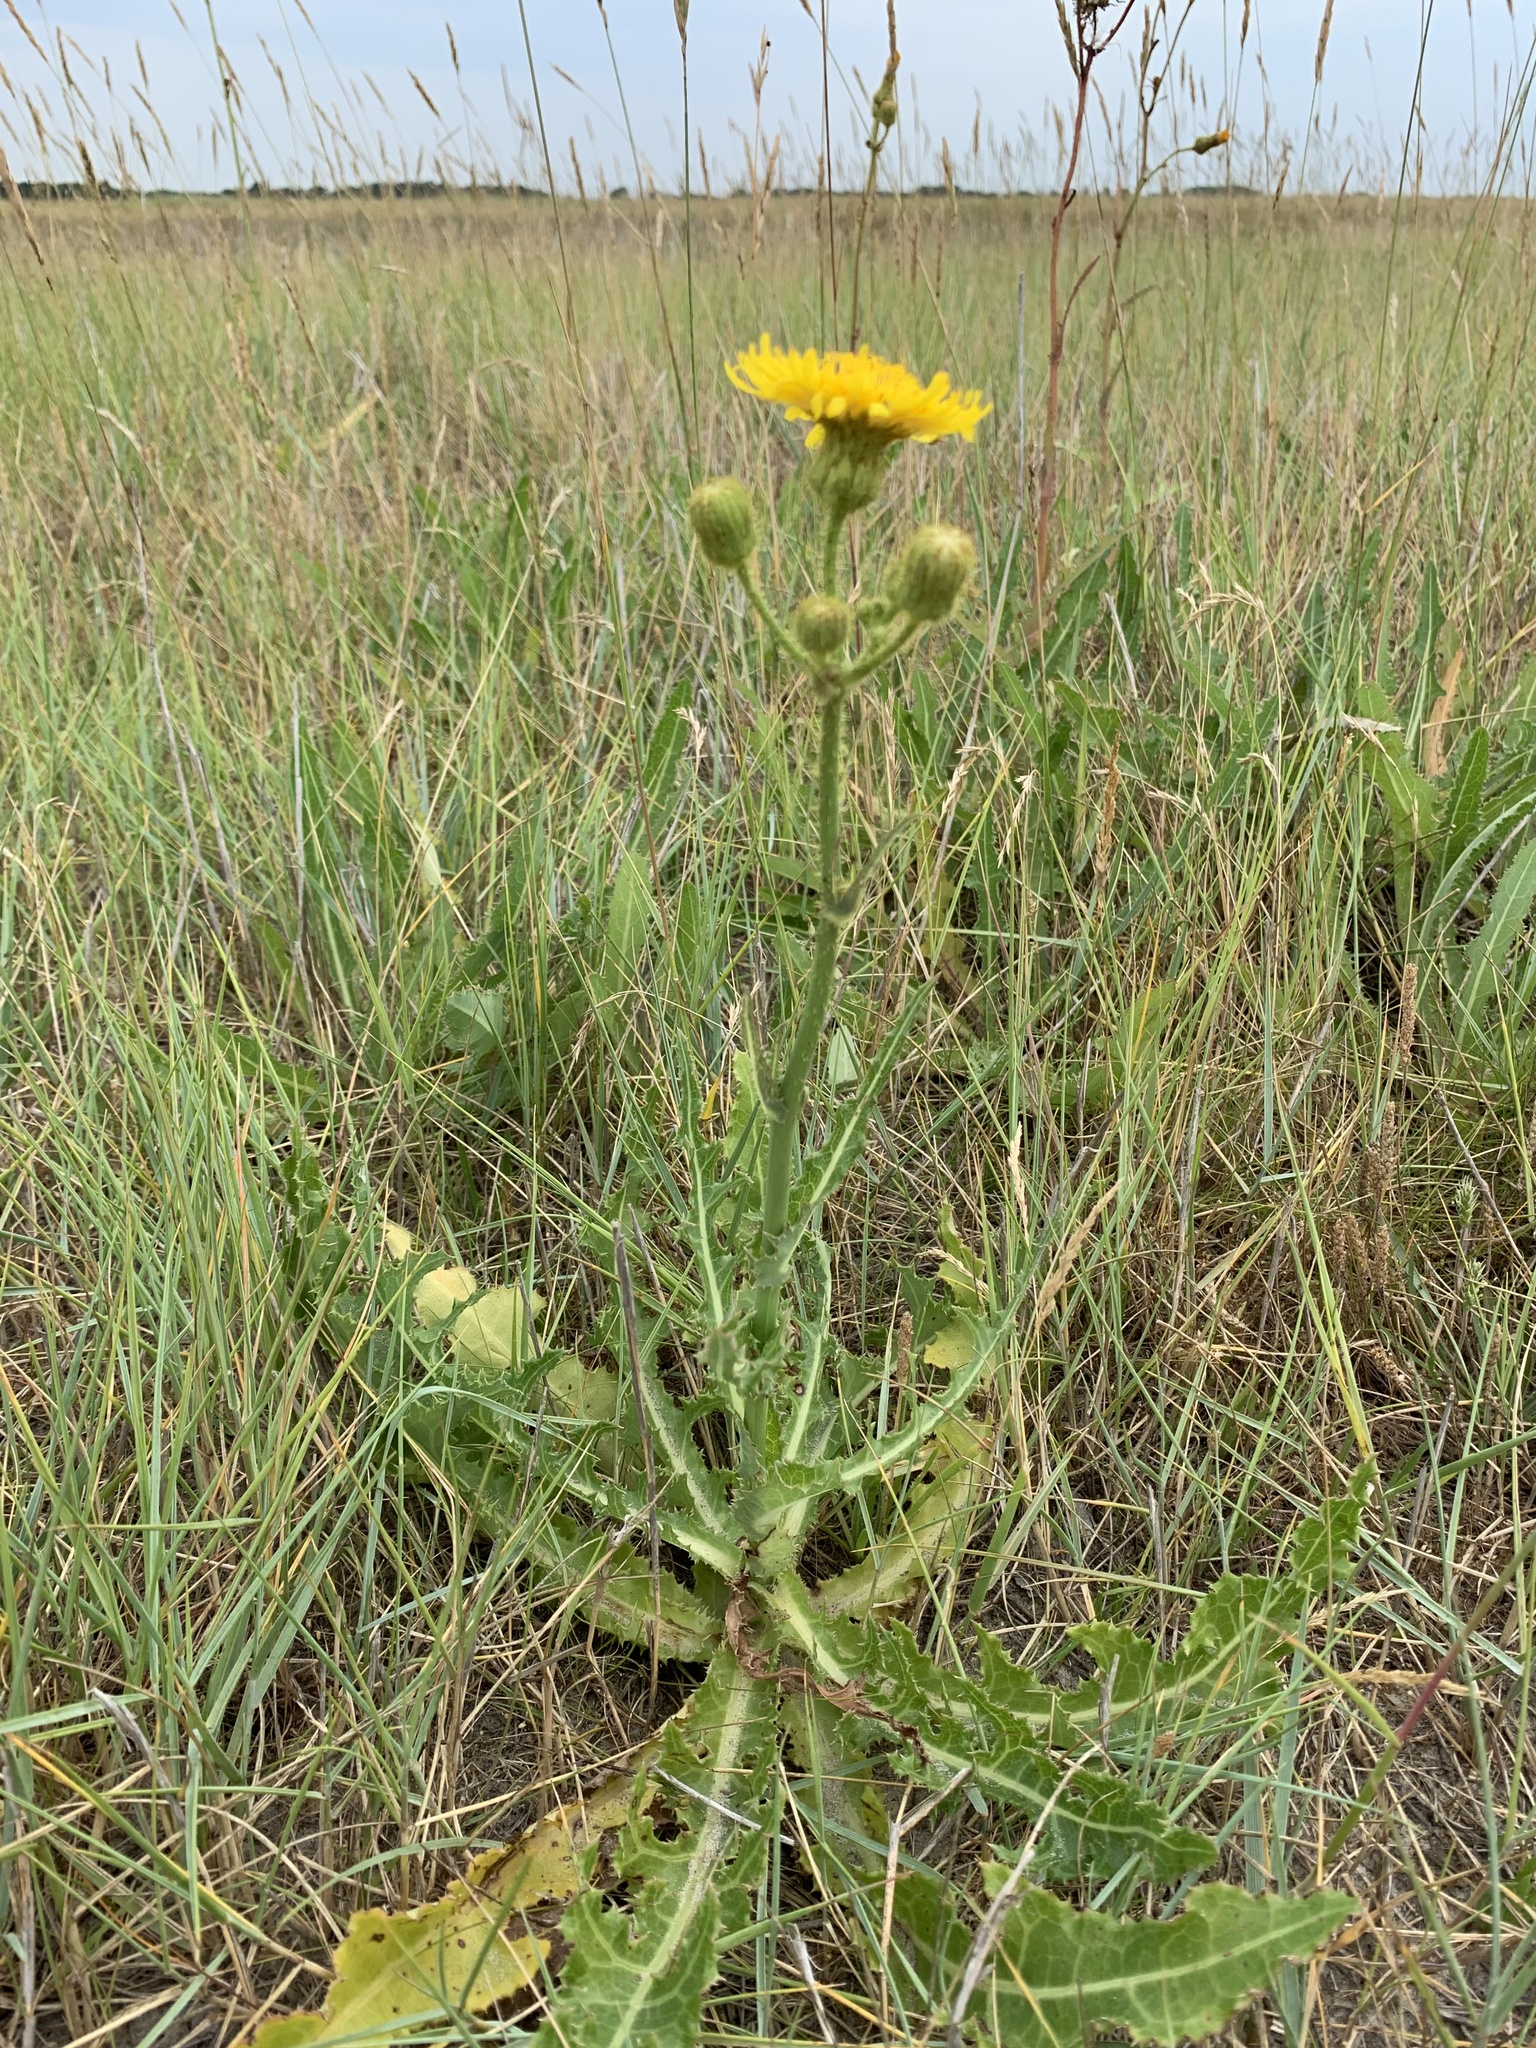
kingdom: Plantae
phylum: Tracheophyta
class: Magnoliopsida
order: Asterales
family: Asteraceae
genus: Sonchus
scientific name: Sonchus arvensis
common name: Perennial sow-thistle
